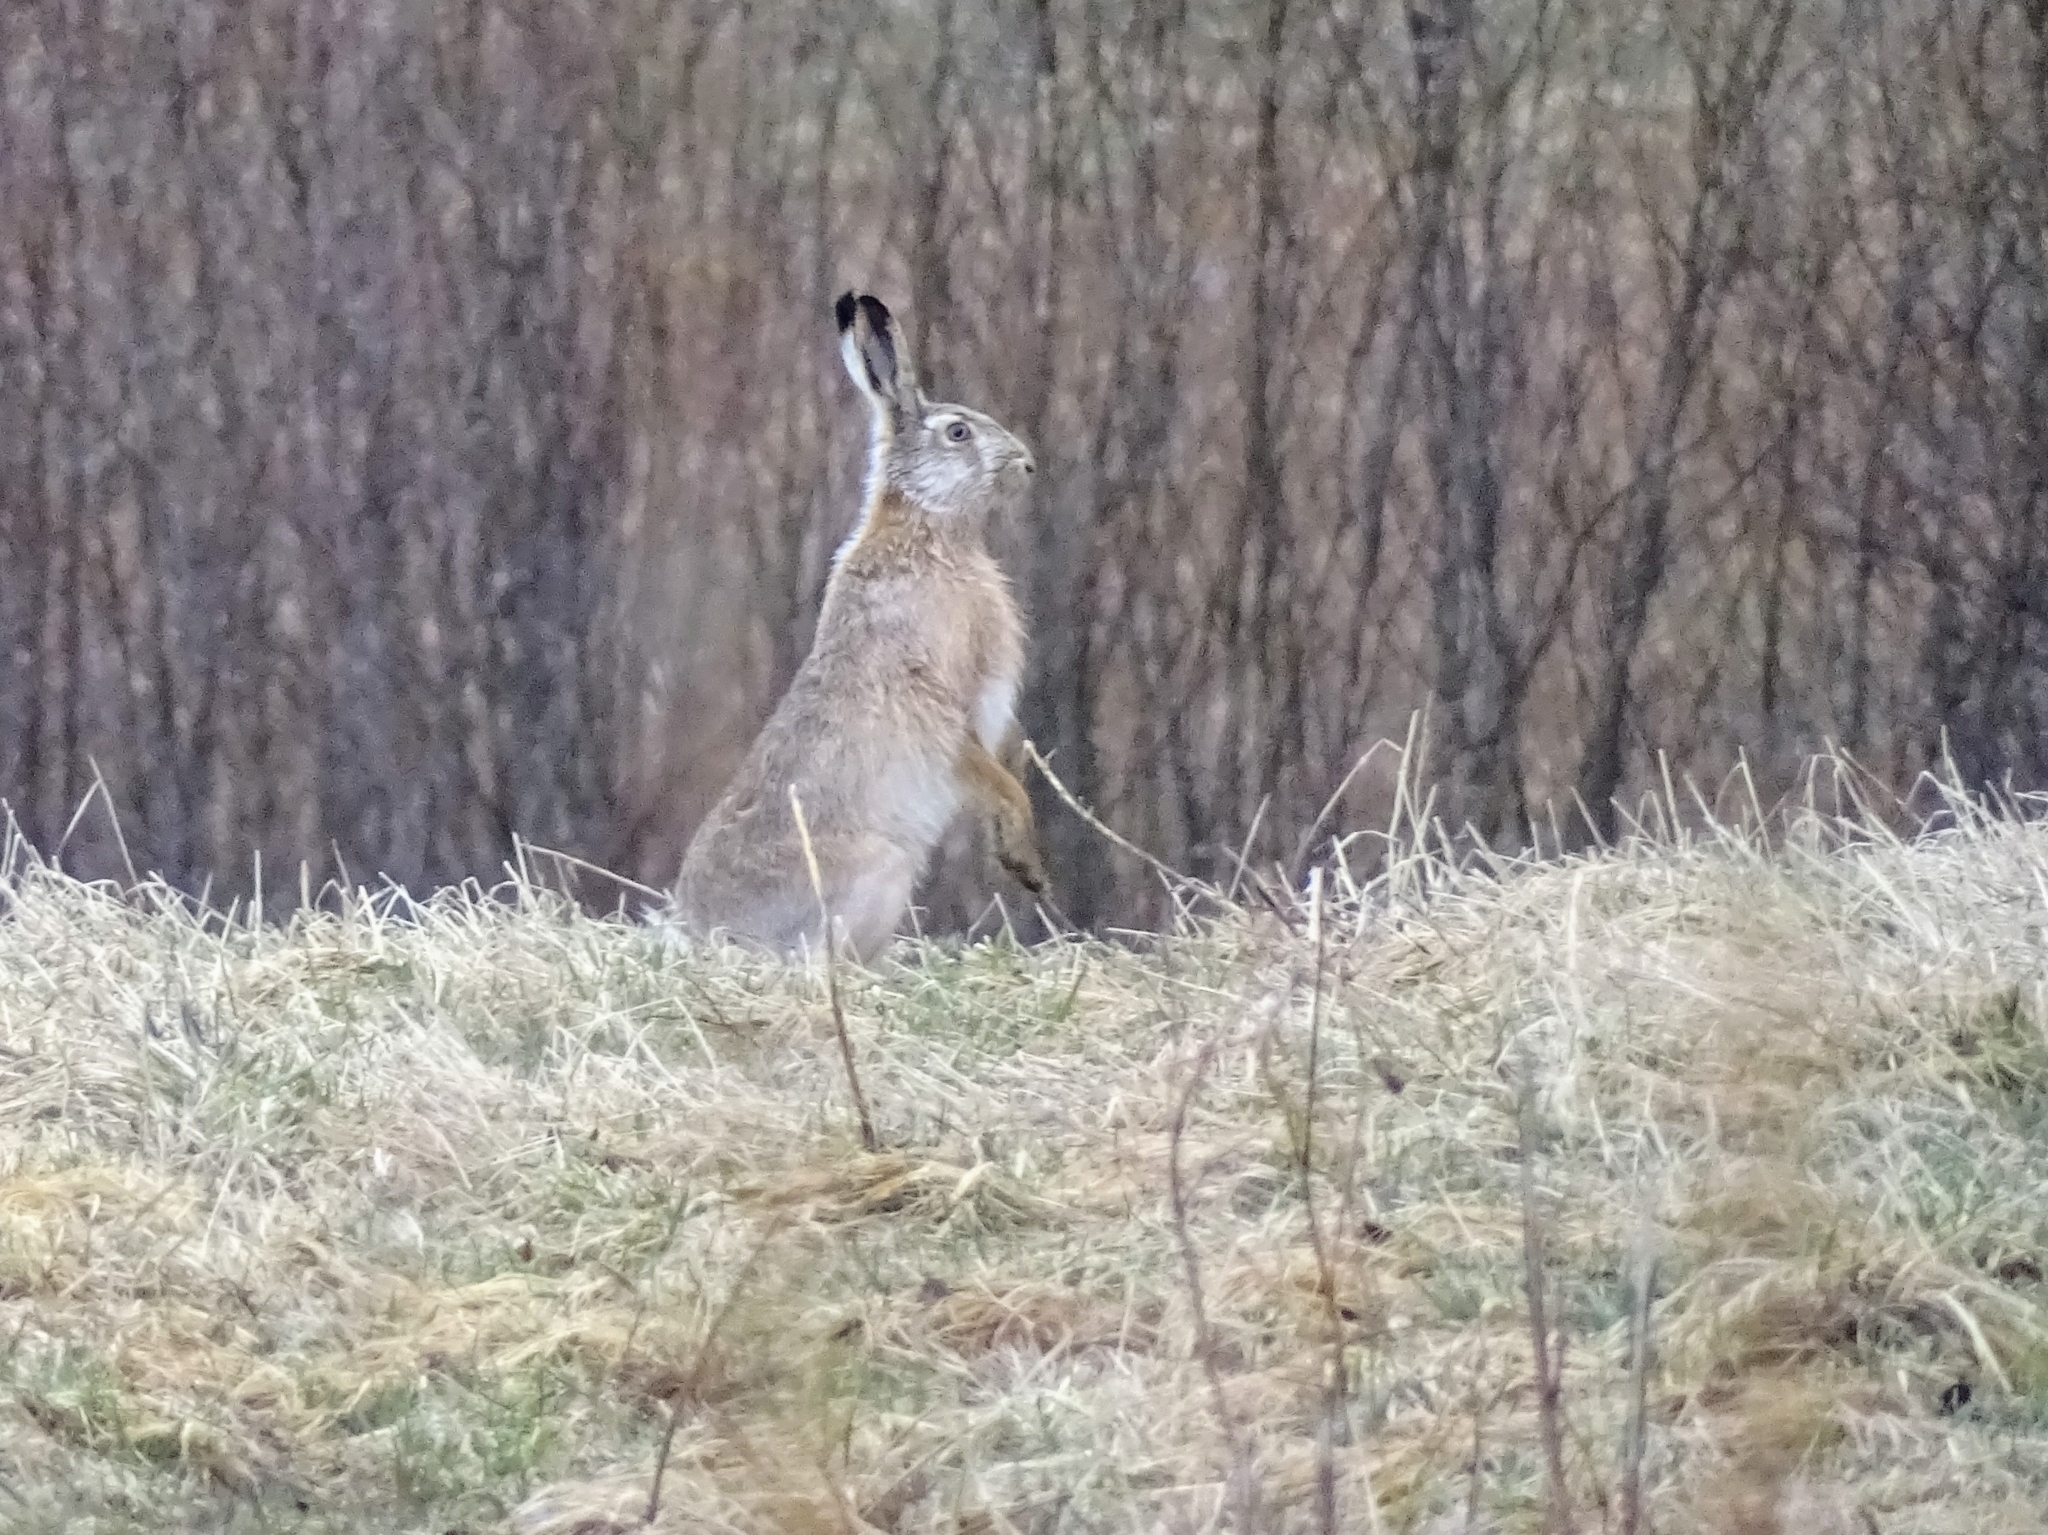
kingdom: Animalia
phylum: Chordata
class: Mammalia
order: Lagomorpha
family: Leporidae
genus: Lepus
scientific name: Lepus europaeus
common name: European hare
